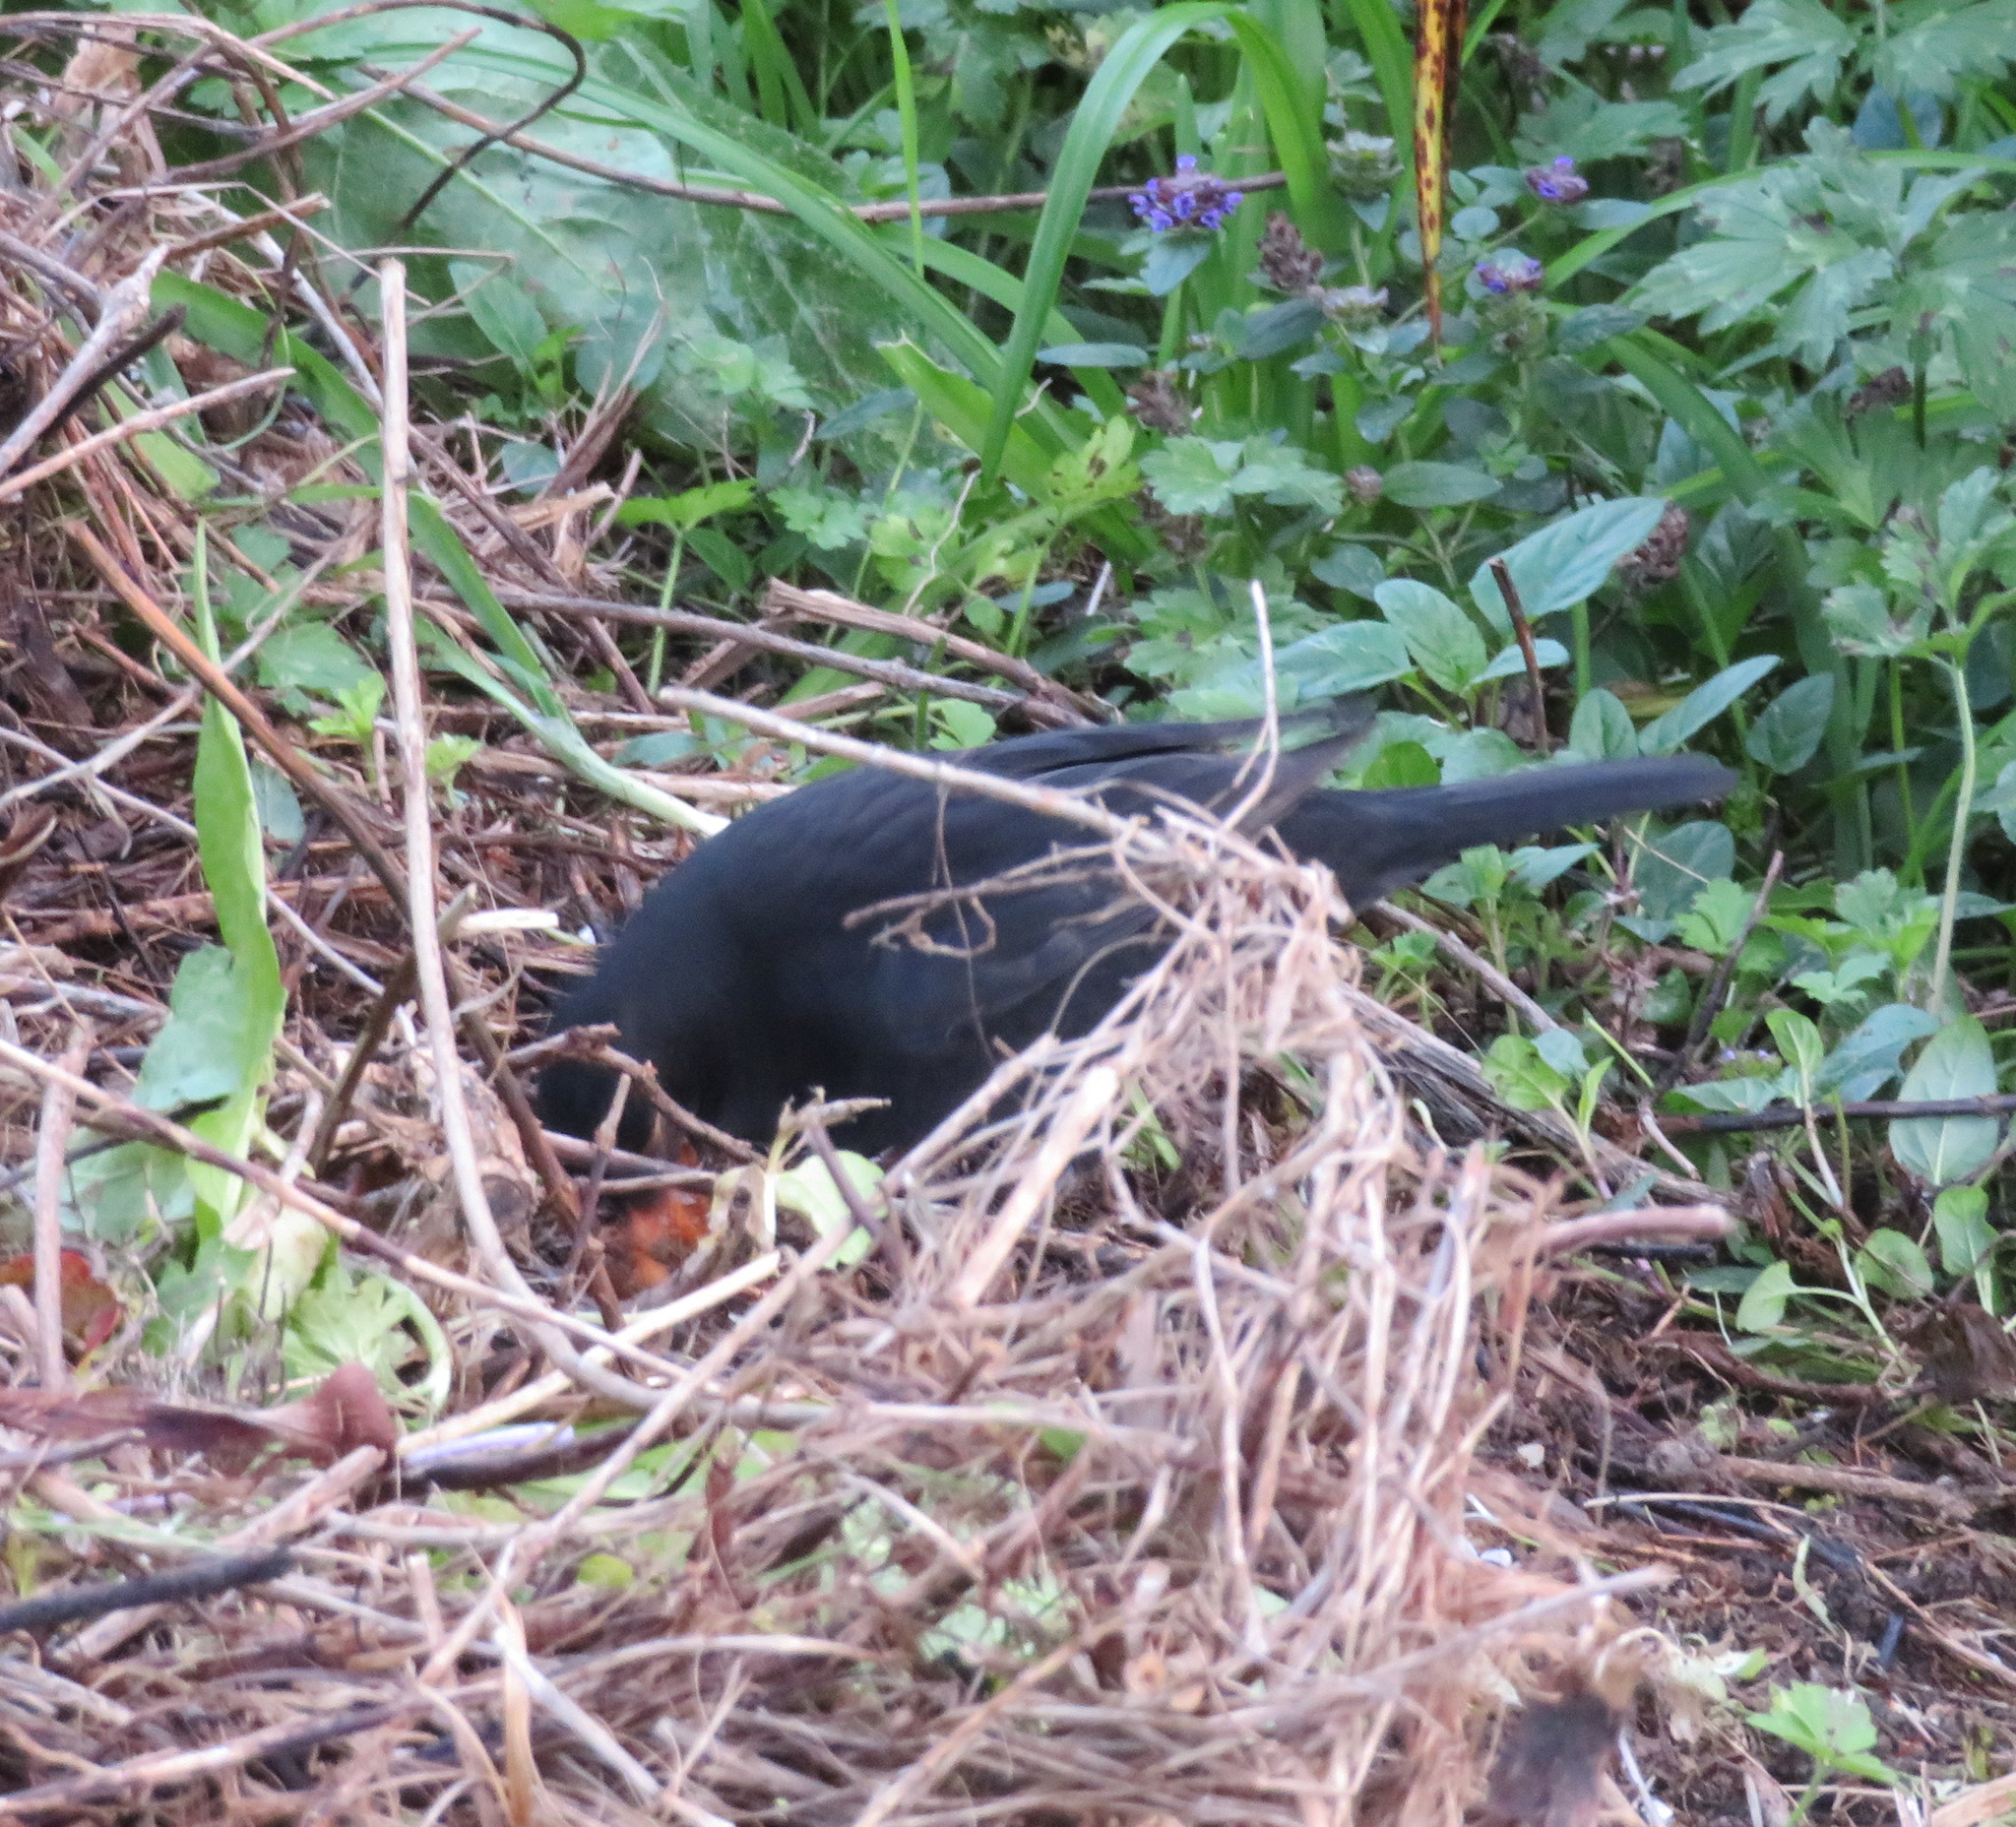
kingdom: Animalia
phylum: Chordata
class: Aves
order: Passeriformes
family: Turdidae
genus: Turdus
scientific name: Turdus merula
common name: Common blackbird
